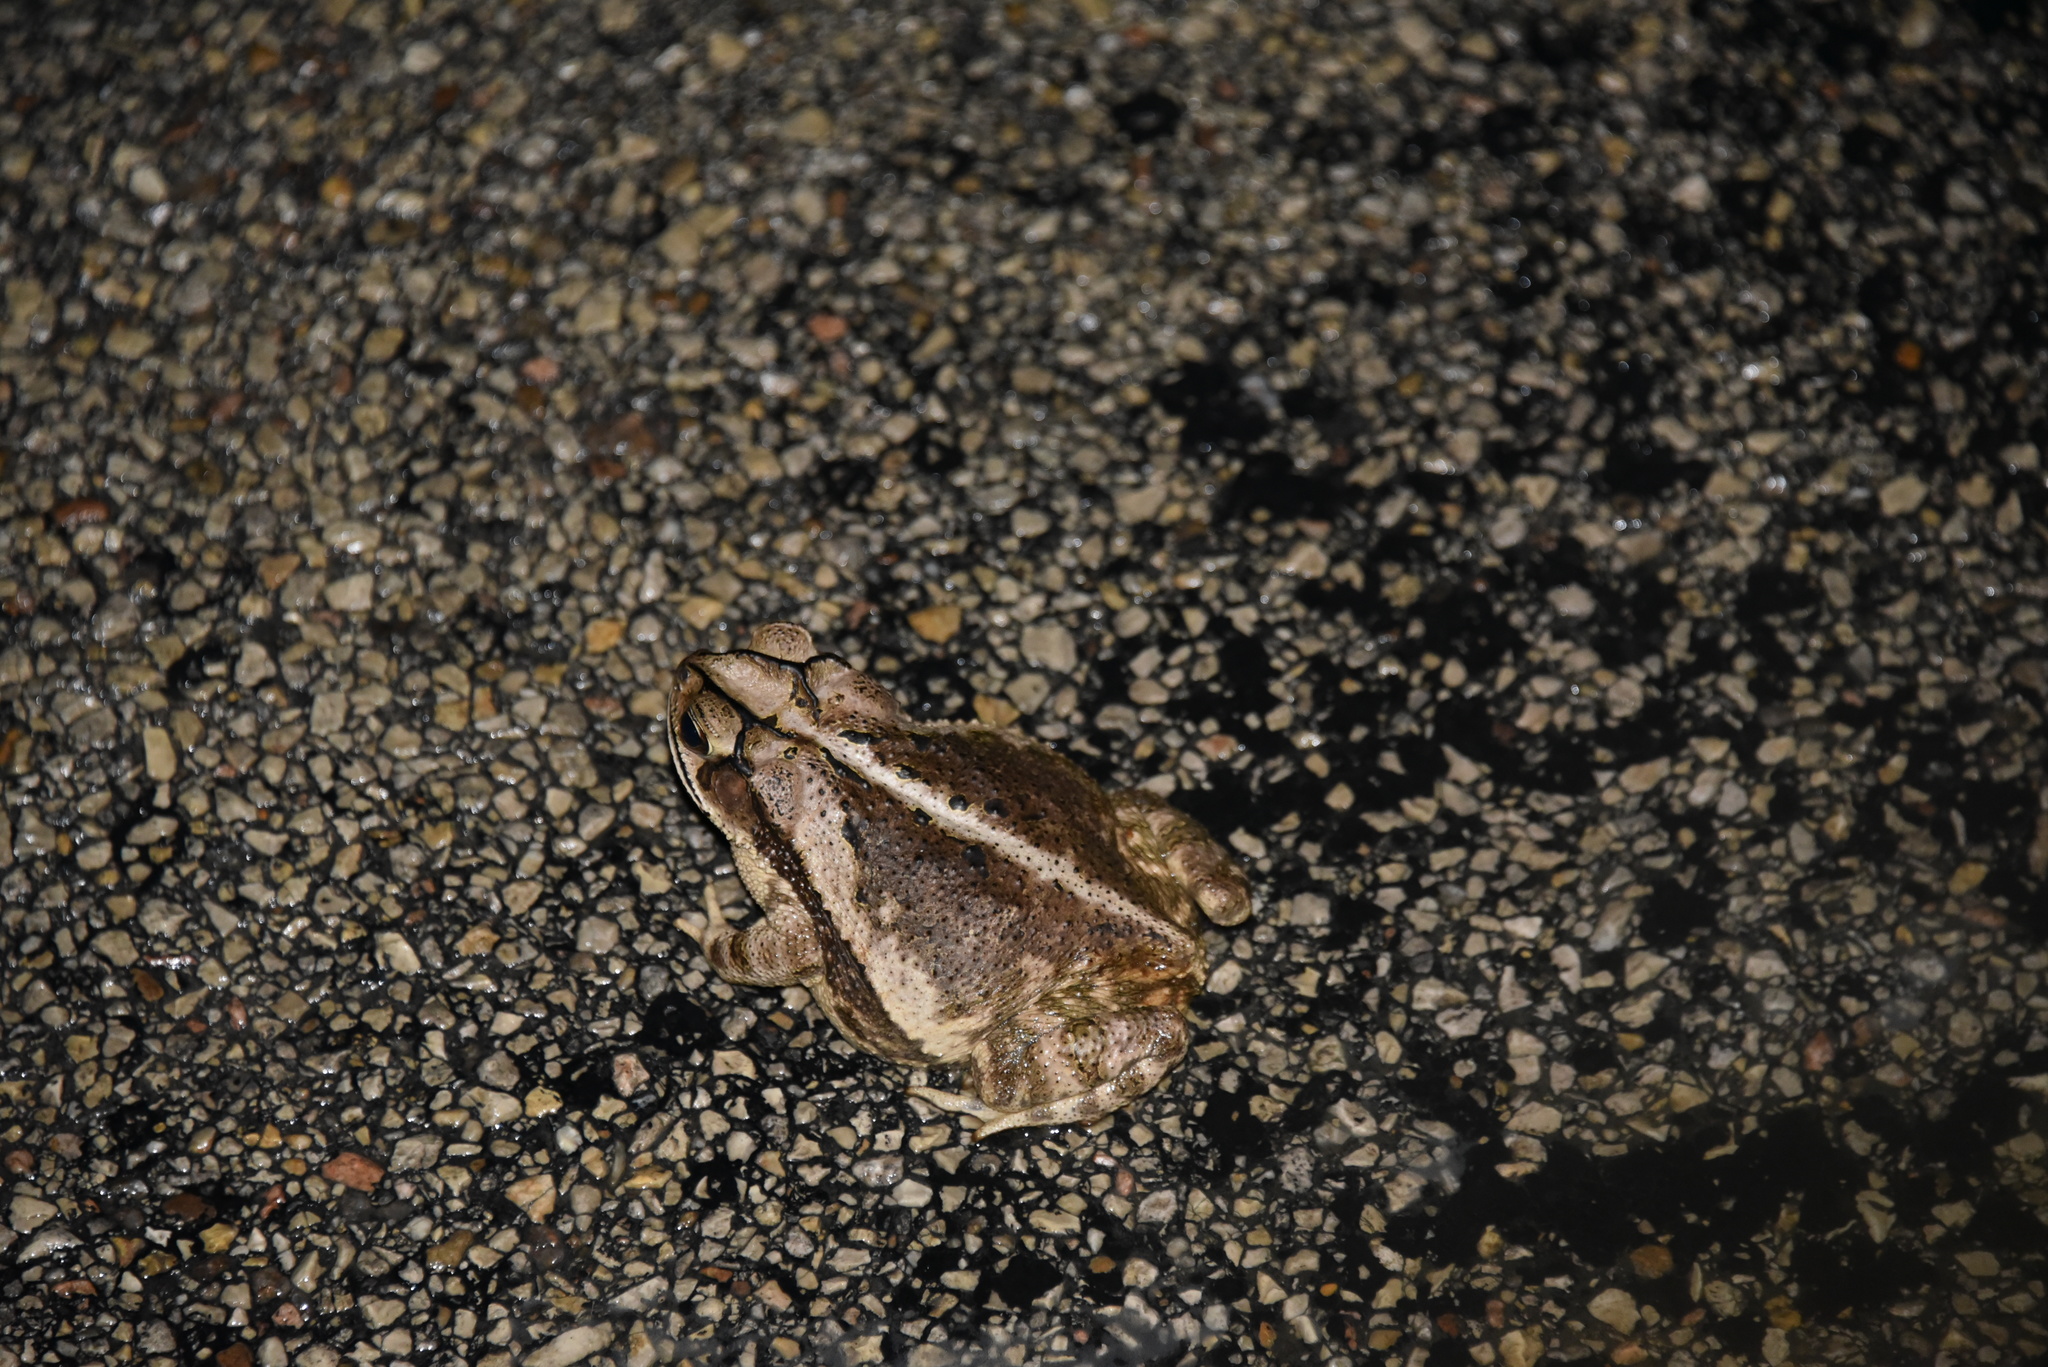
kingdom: Animalia
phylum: Chordata
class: Amphibia
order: Anura
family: Bufonidae
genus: Incilius
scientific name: Incilius nebulifer
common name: Gulf coast toad
